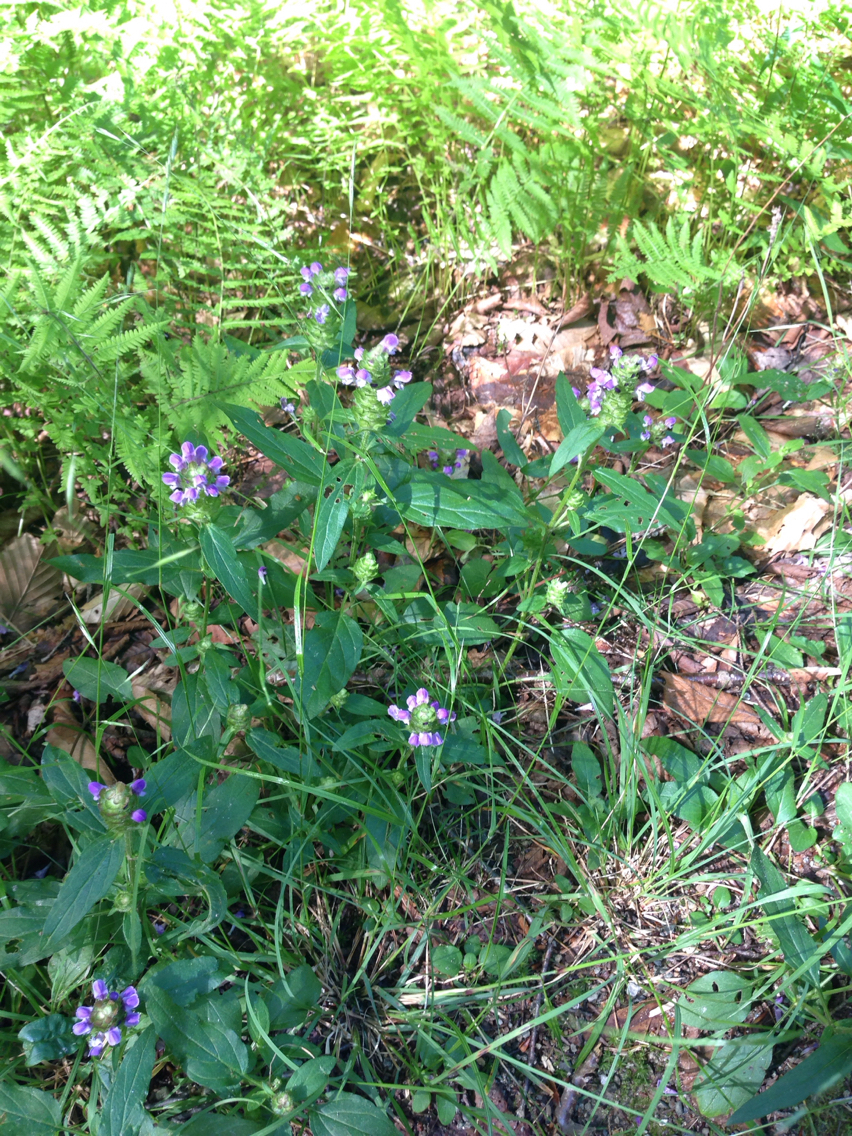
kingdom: Plantae
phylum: Tracheophyta
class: Magnoliopsida
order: Lamiales
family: Lamiaceae
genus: Prunella
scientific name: Prunella vulgaris
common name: Heal-all
